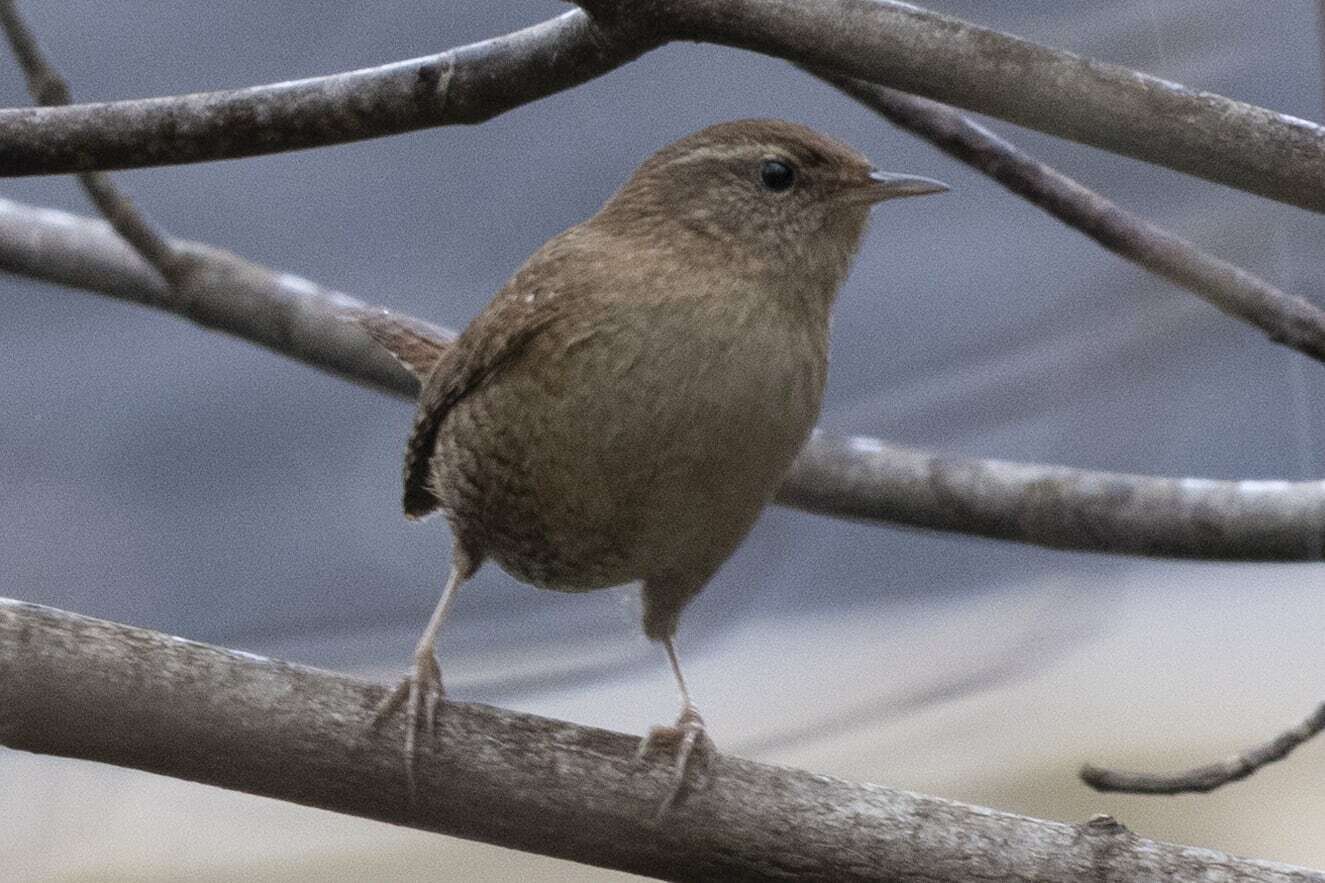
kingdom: Animalia
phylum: Chordata
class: Aves
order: Passeriformes
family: Troglodytidae
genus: Troglodytes
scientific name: Troglodytes troglodytes
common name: Eurasian wren
